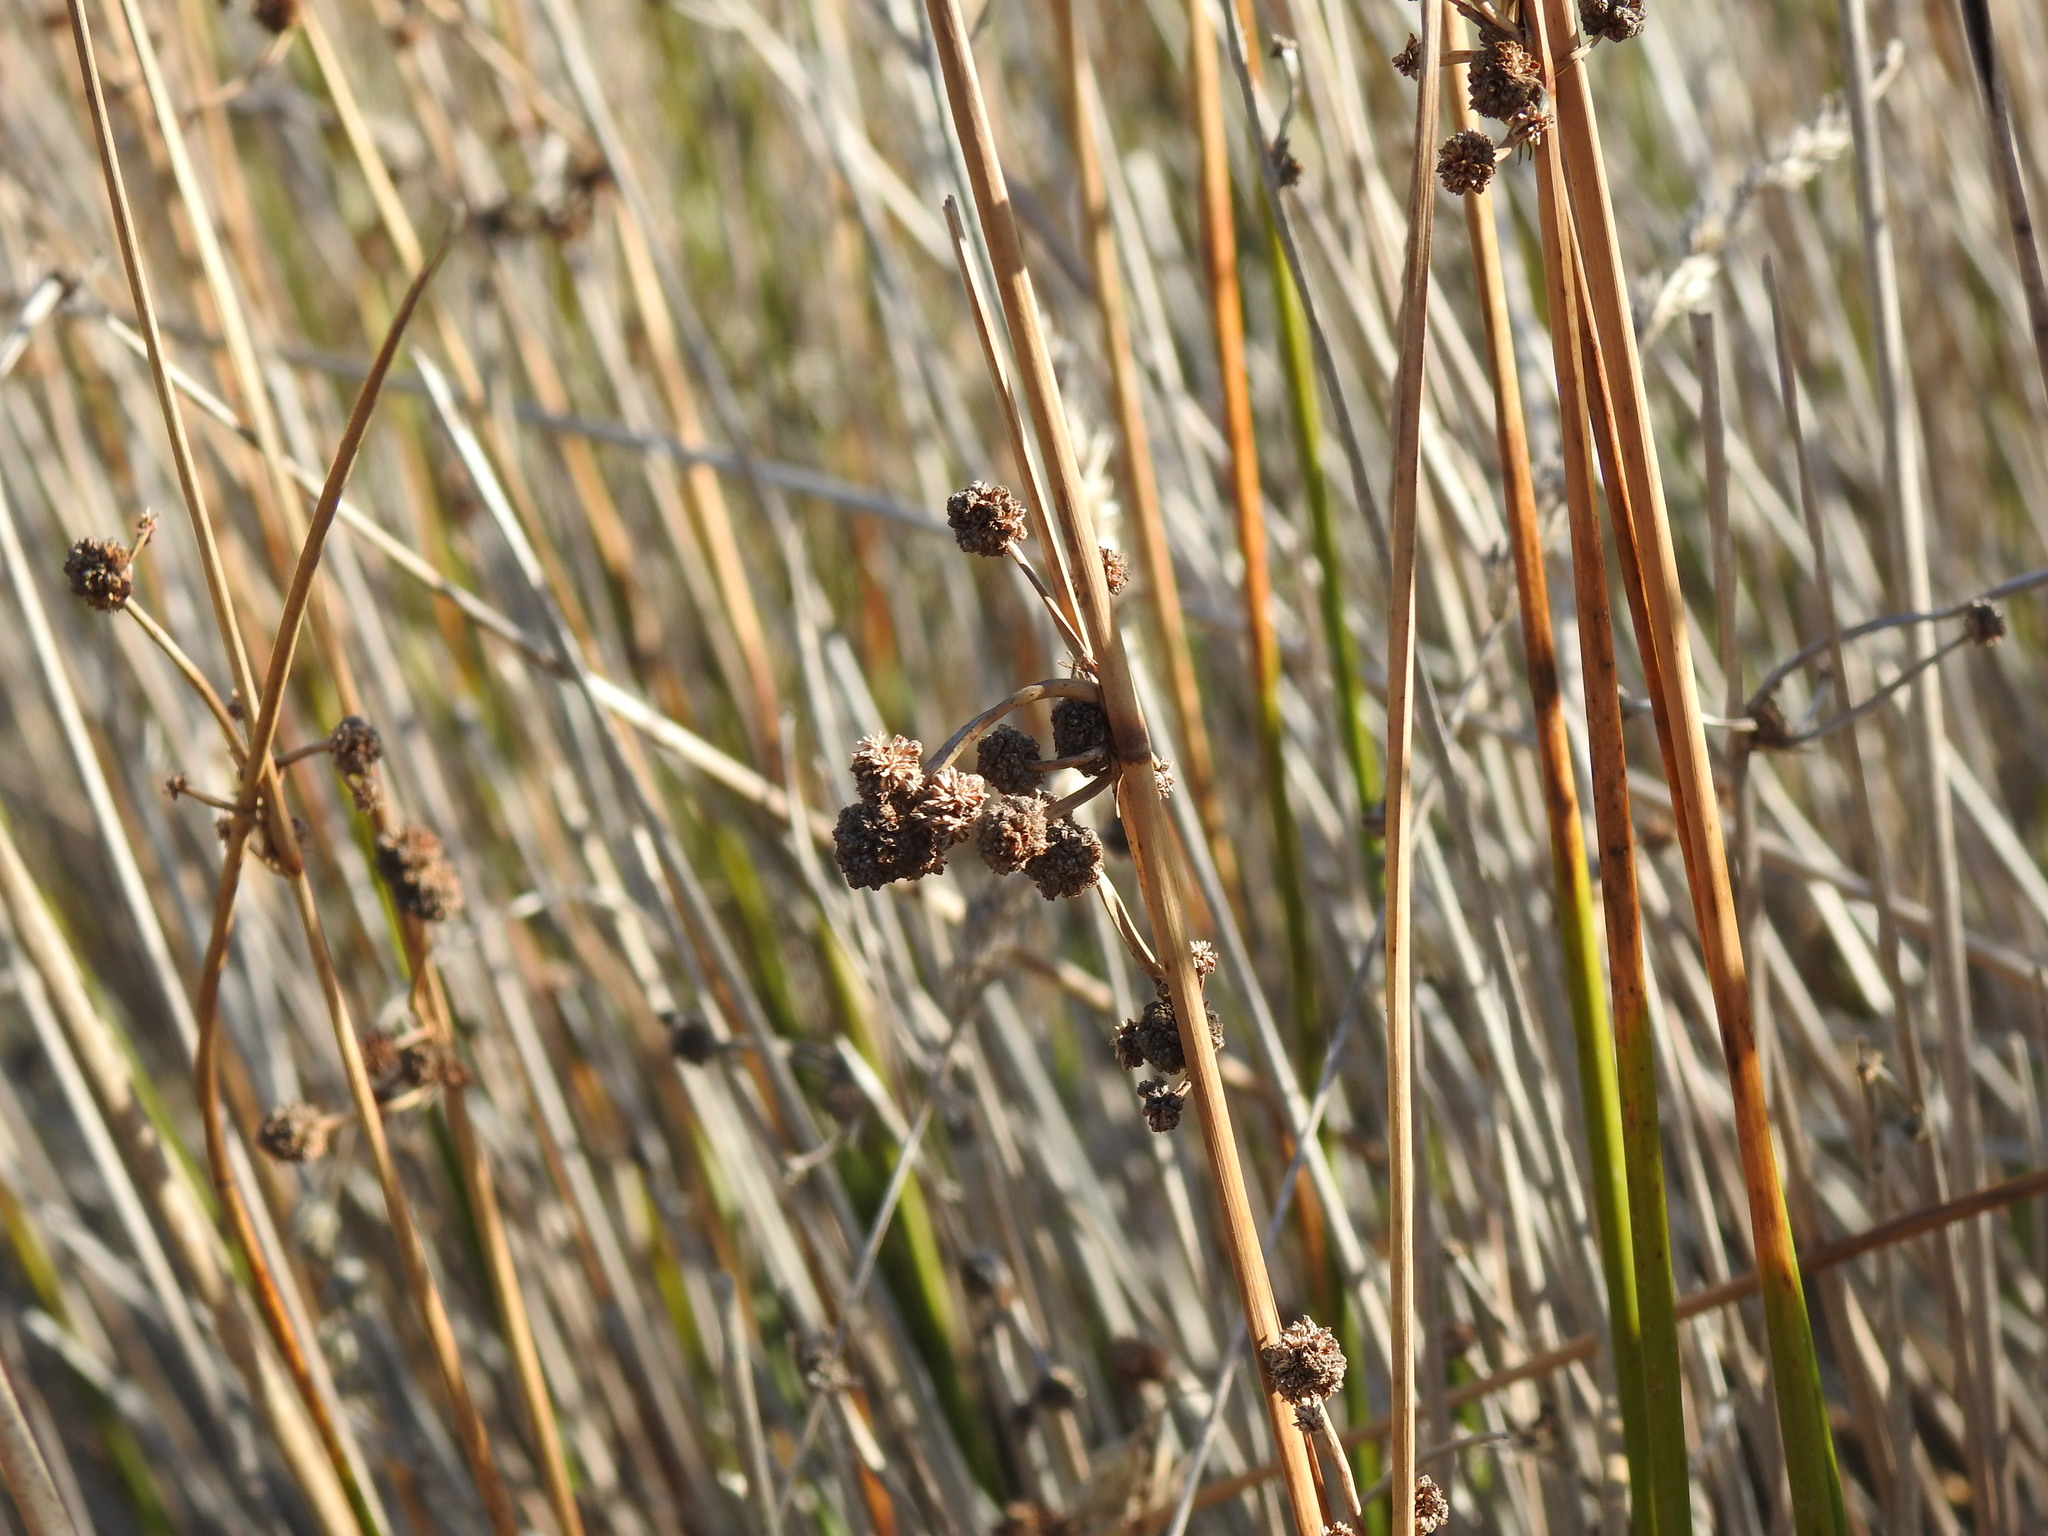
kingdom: Plantae
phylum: Tracheophyta
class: Liliopsida
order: Poales
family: Cyperaceae
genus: Scirpoides
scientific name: Scirpoides holoschoenus
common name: Round-headed club-rush
